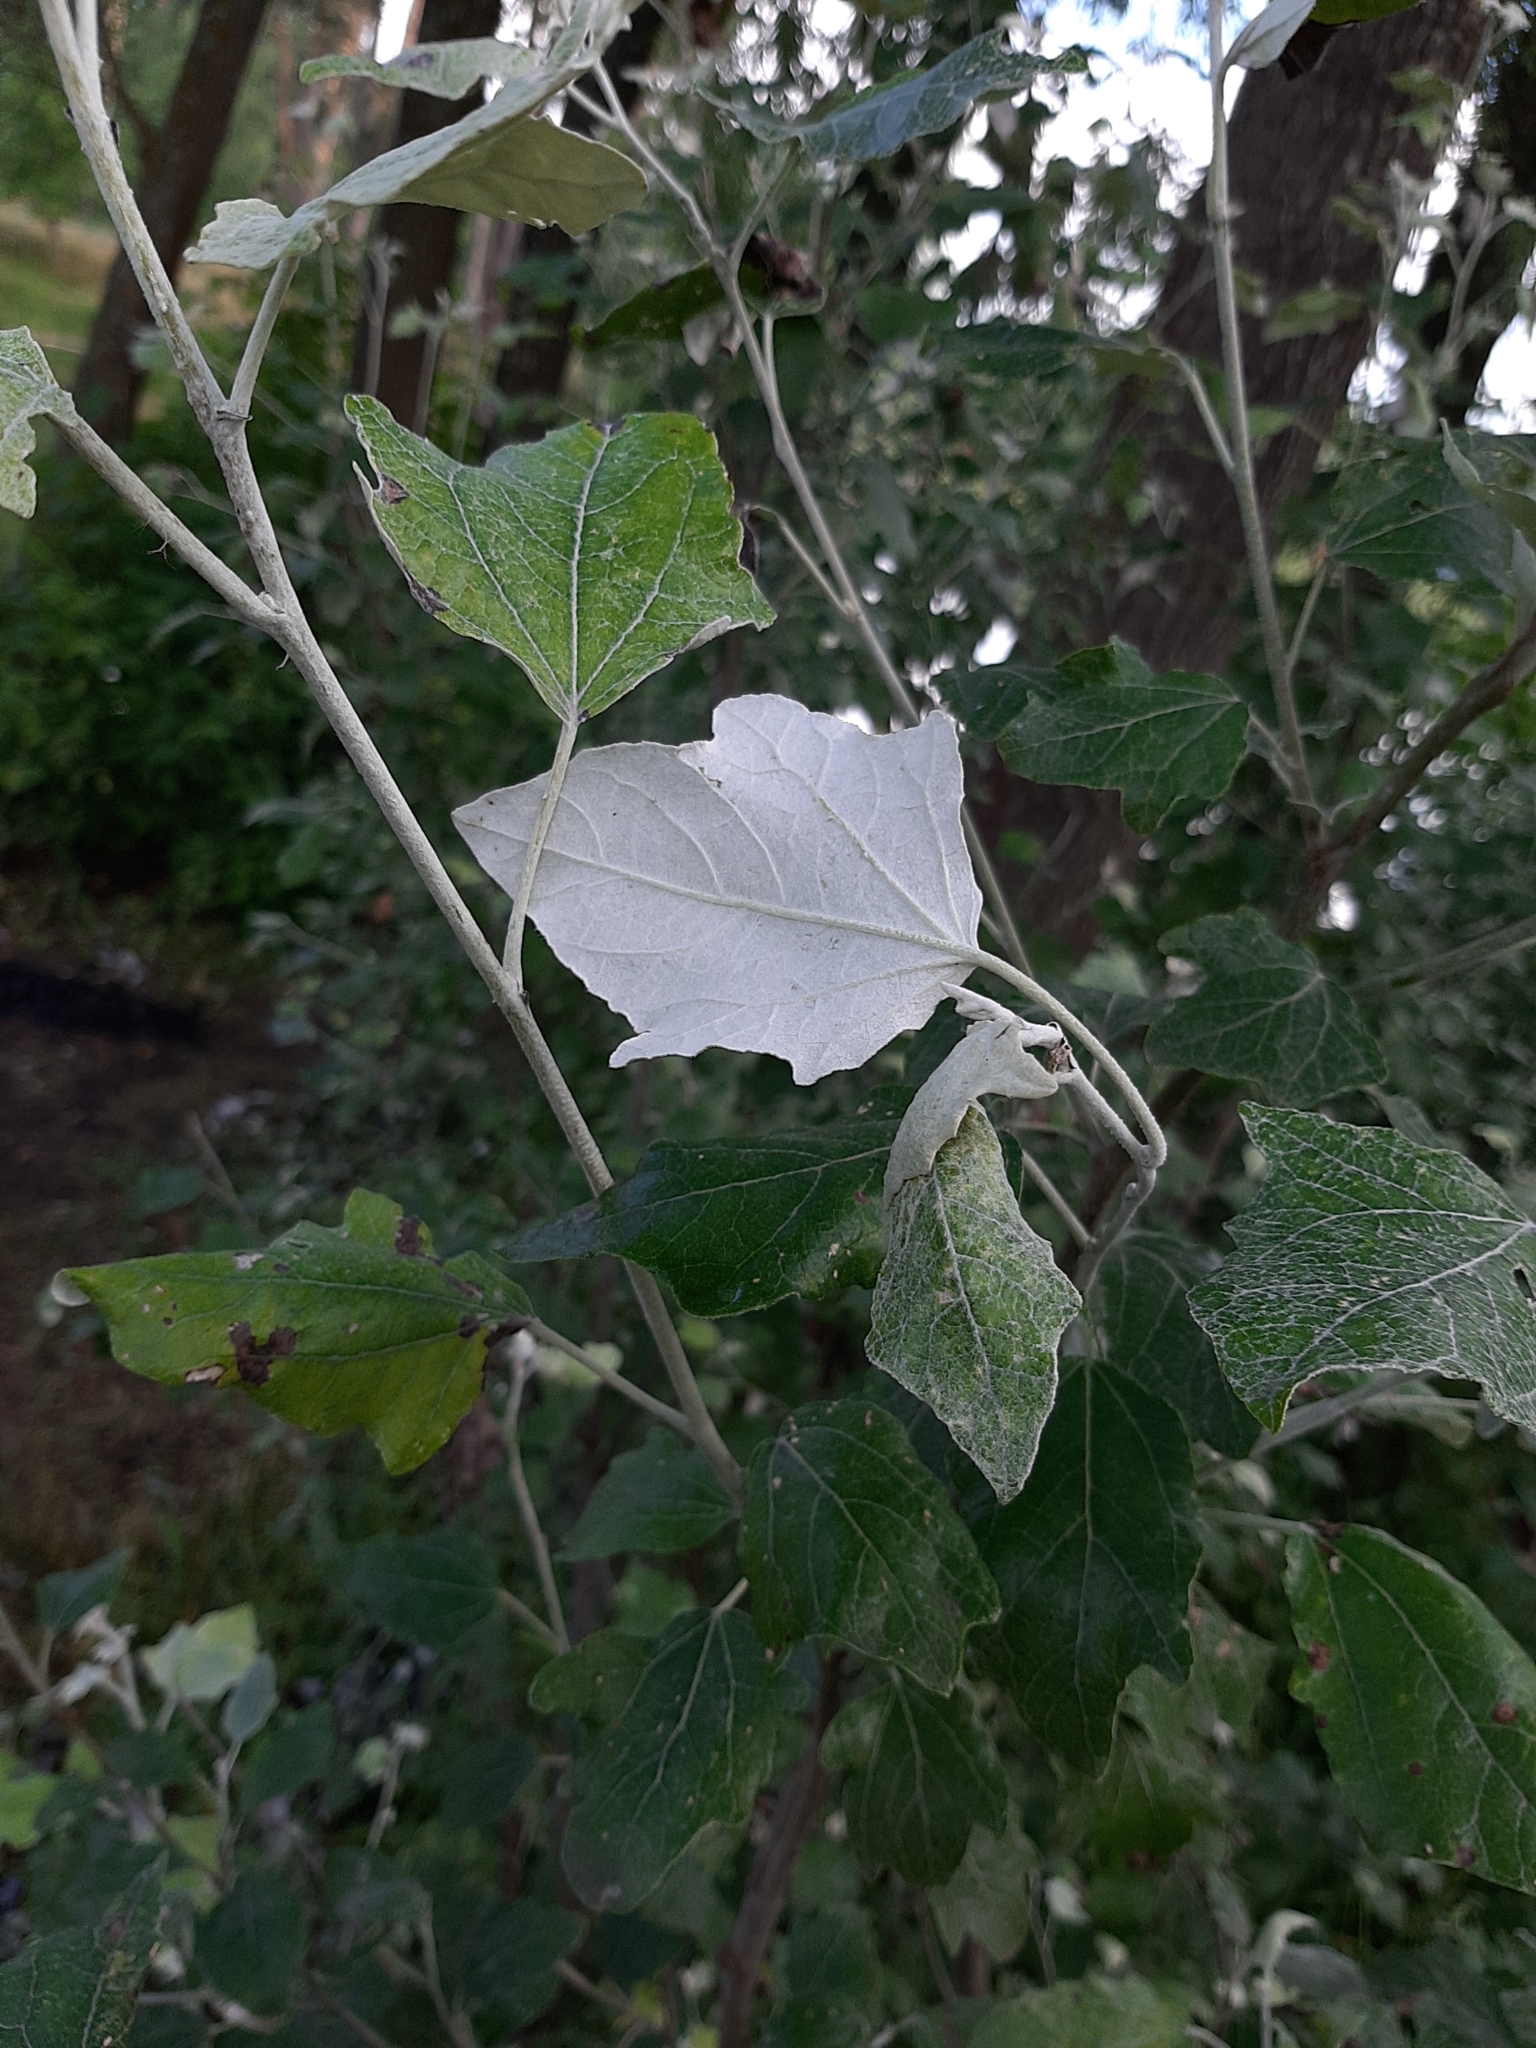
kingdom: Plantae
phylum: Tracheophyta
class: Magnoliopsida
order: Malpighiales
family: Salicaceae
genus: Populus
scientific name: Populus alba
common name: White poplar
